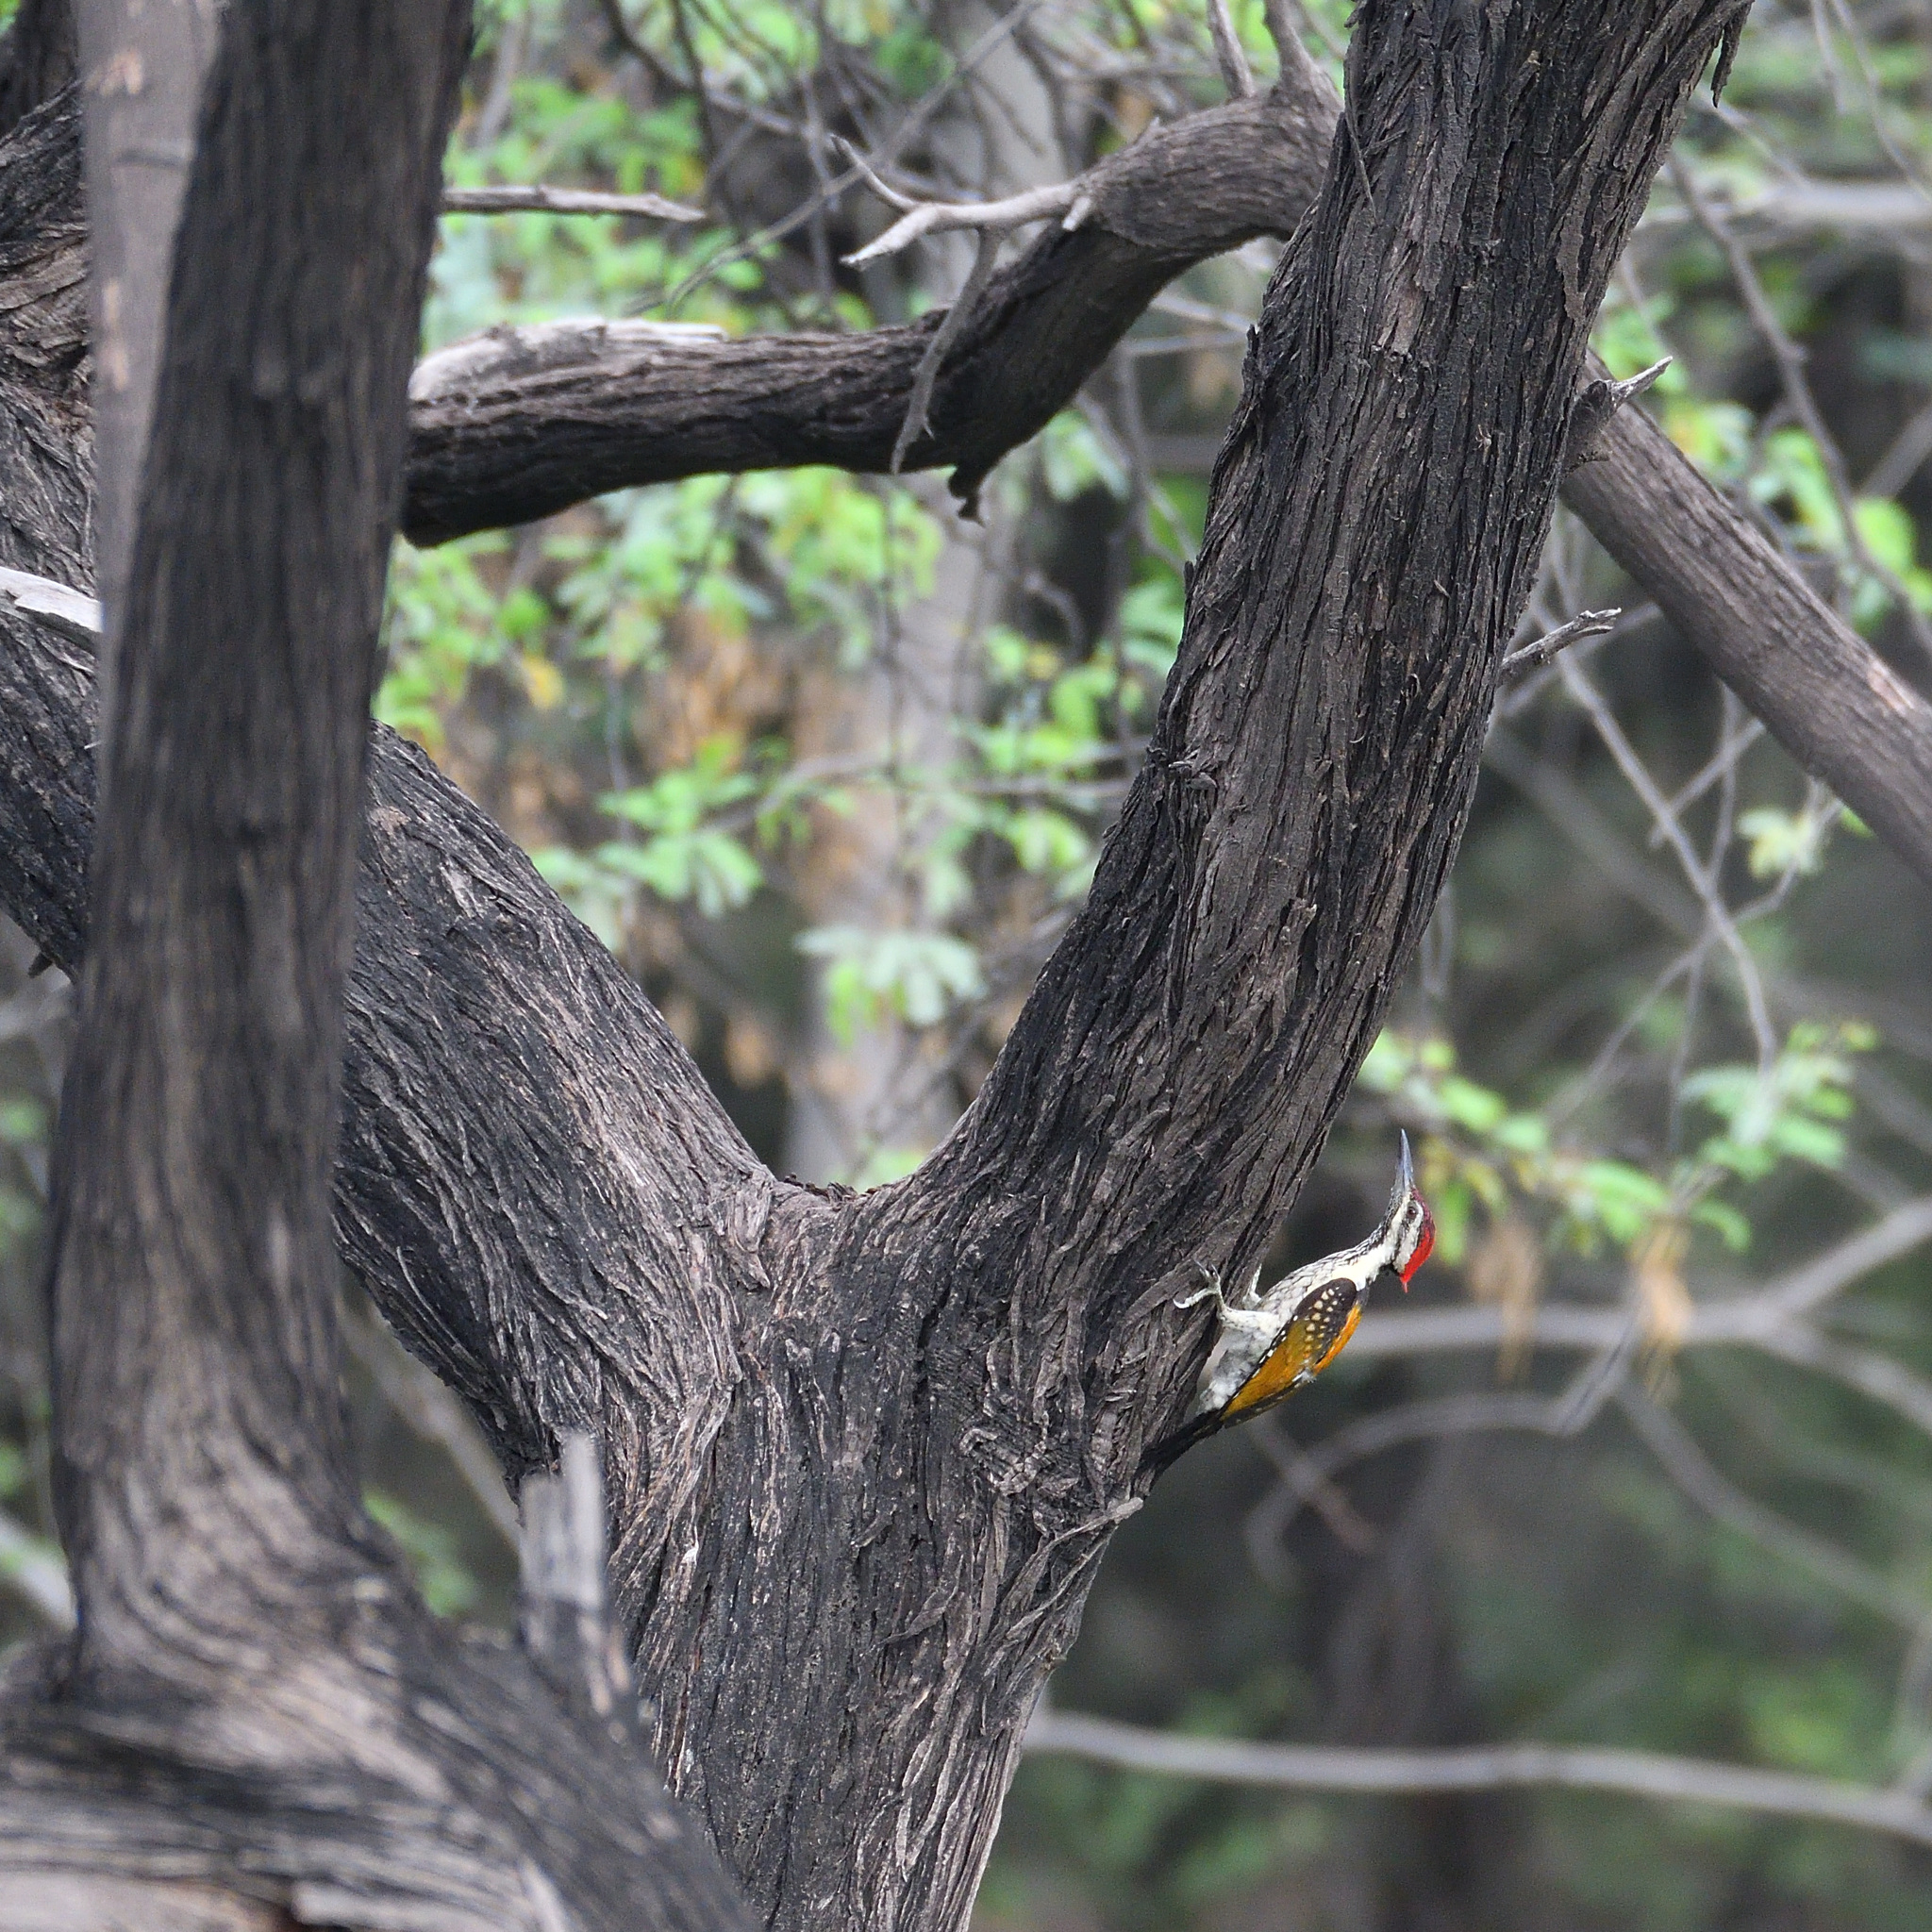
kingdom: Animalia
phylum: Chordata
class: Aves
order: Piciformes
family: Picidae
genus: Dinopium
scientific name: Dinopium benghalense
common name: Black-rumped flameback
